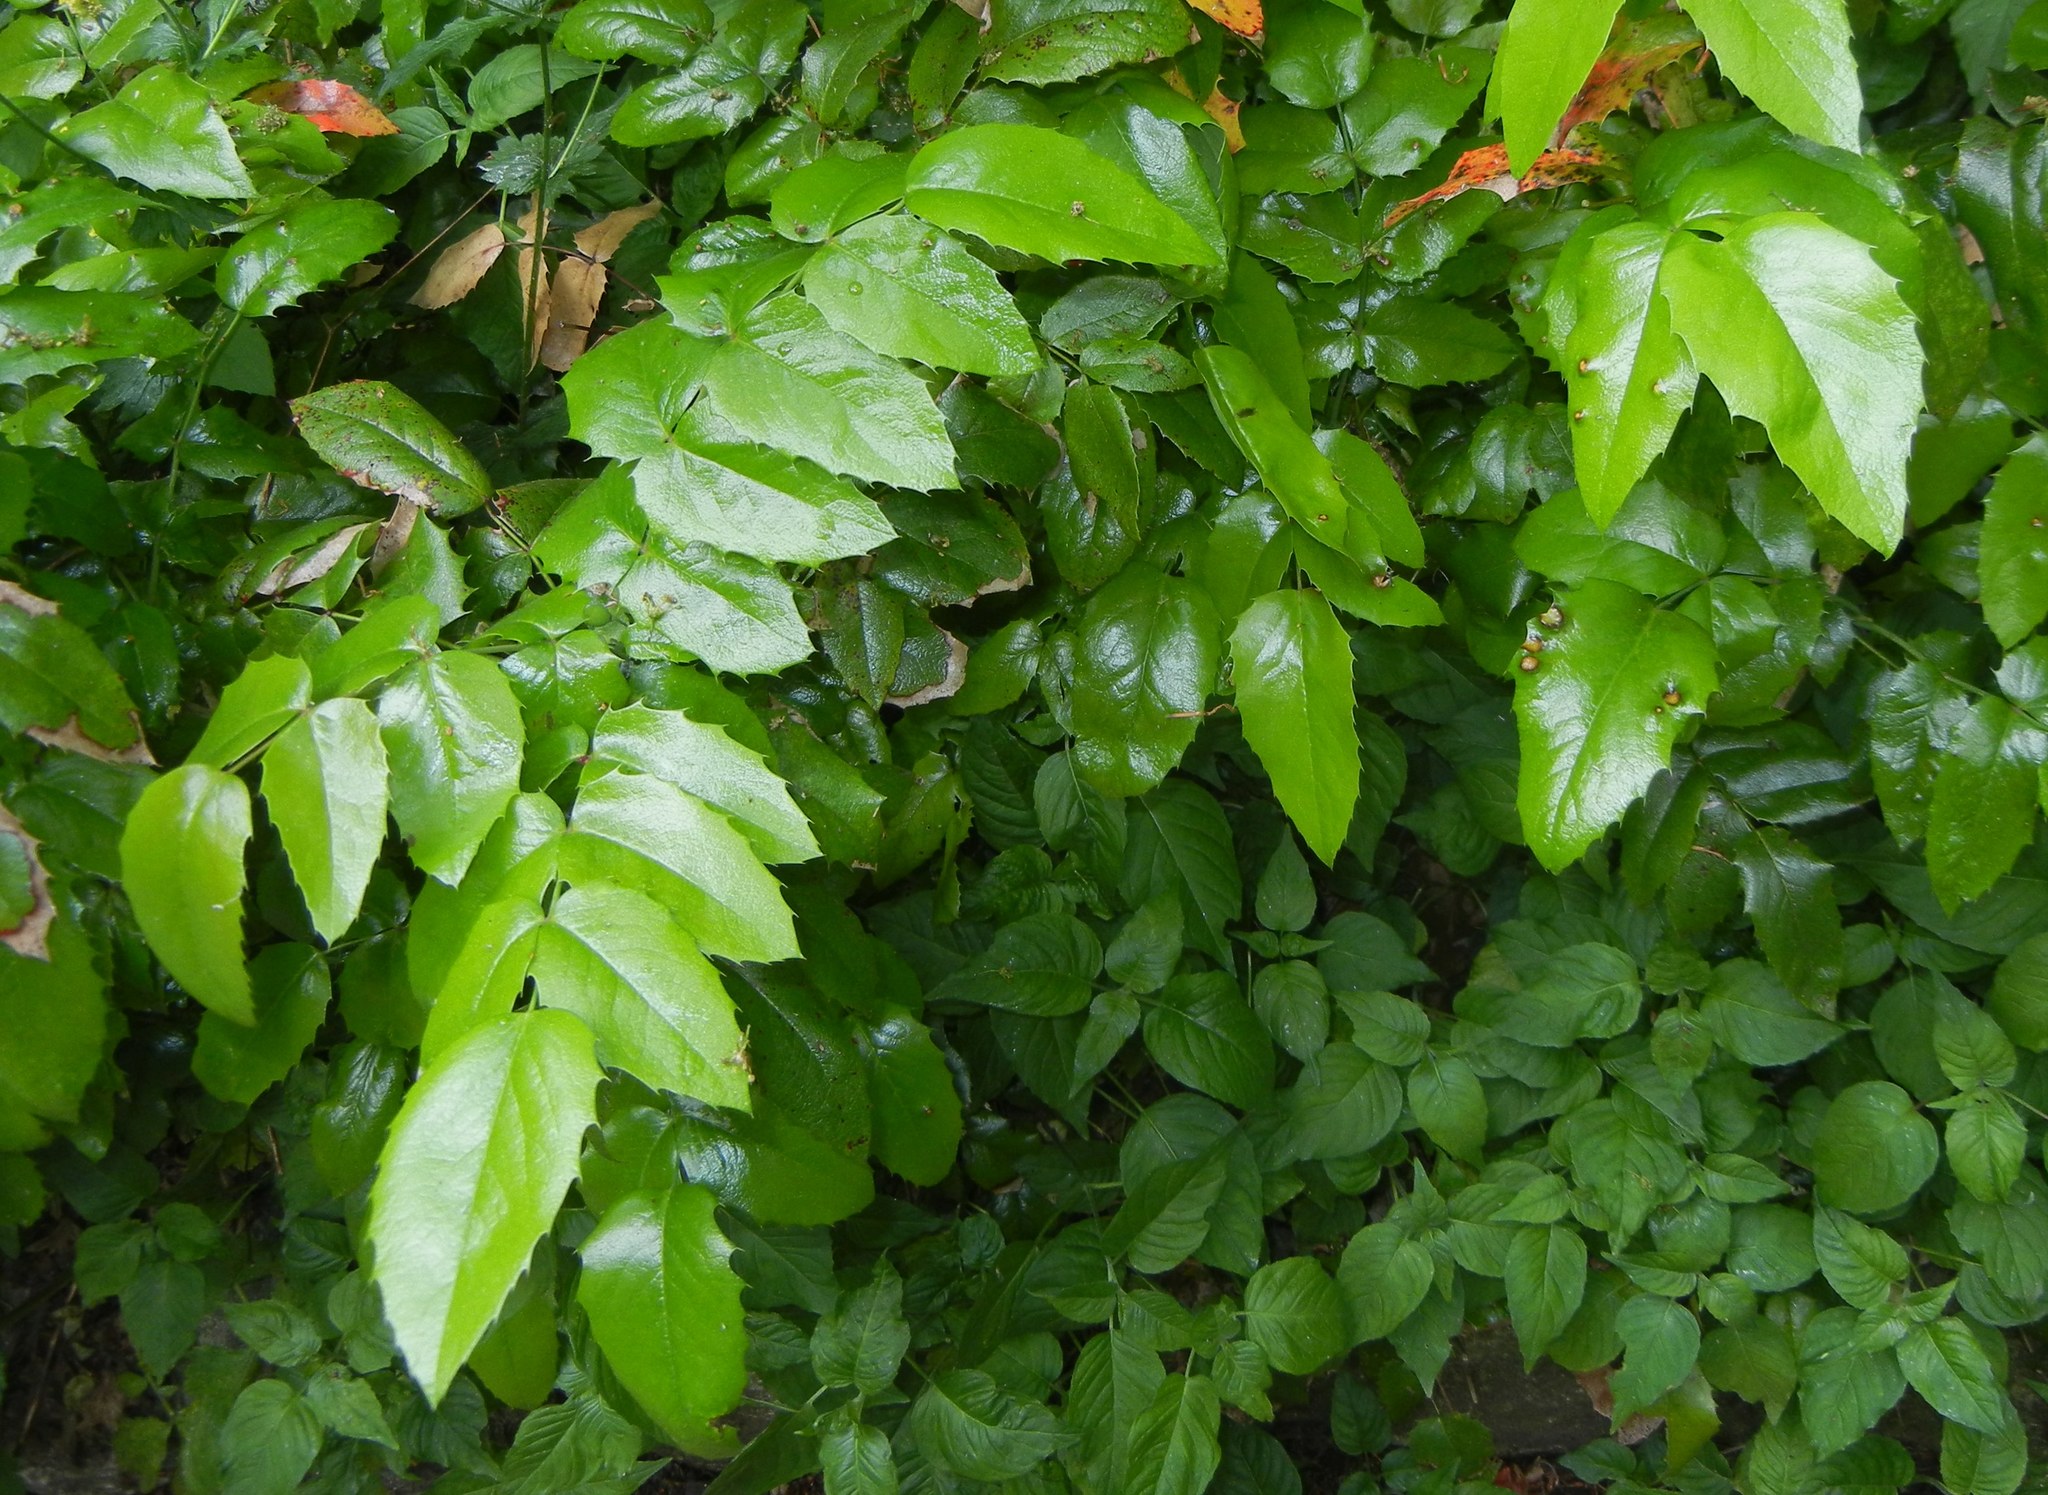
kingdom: Plantae
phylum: Tracheophyta
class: Magnoliopsida
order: Ranunculales
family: Berberidaceae
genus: Mahonia
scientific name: Mahonia aquifolium
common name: Oregon-grape
